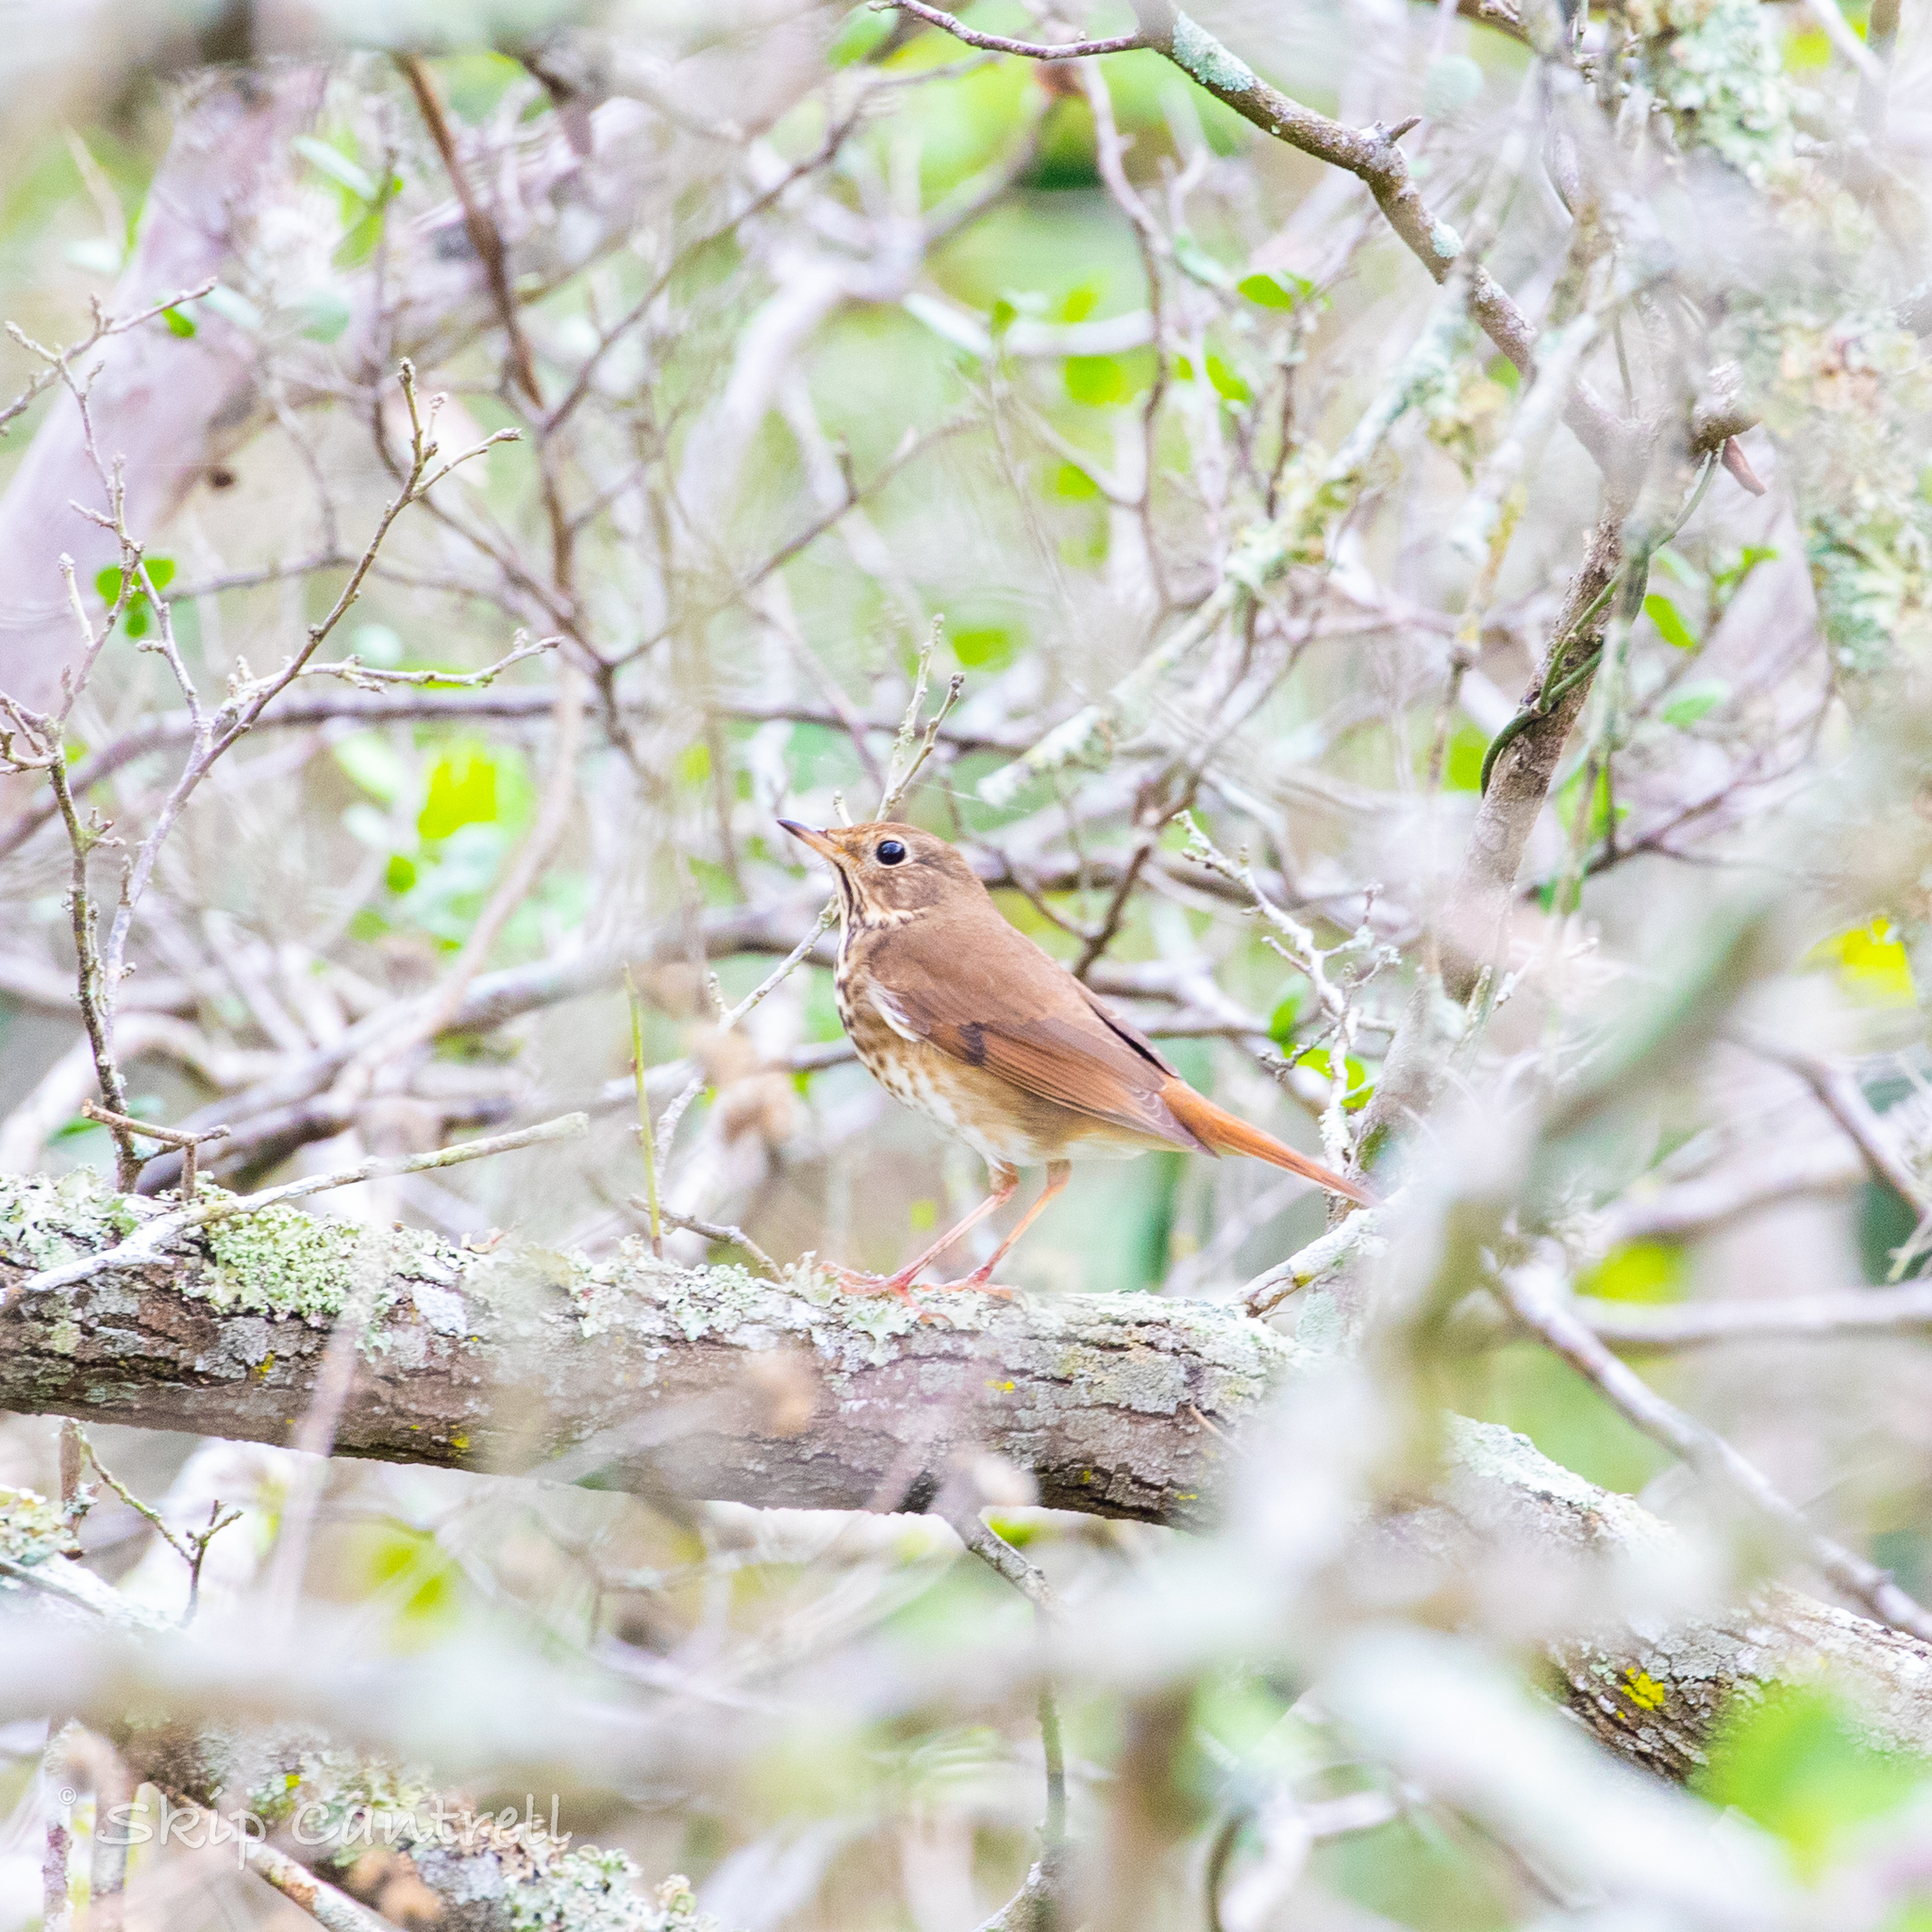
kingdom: Animalia
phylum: Chordata
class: Aves
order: Passeriformes
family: Turdidae
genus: Catharus
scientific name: Catharus guttatus
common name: Hermit thrush
